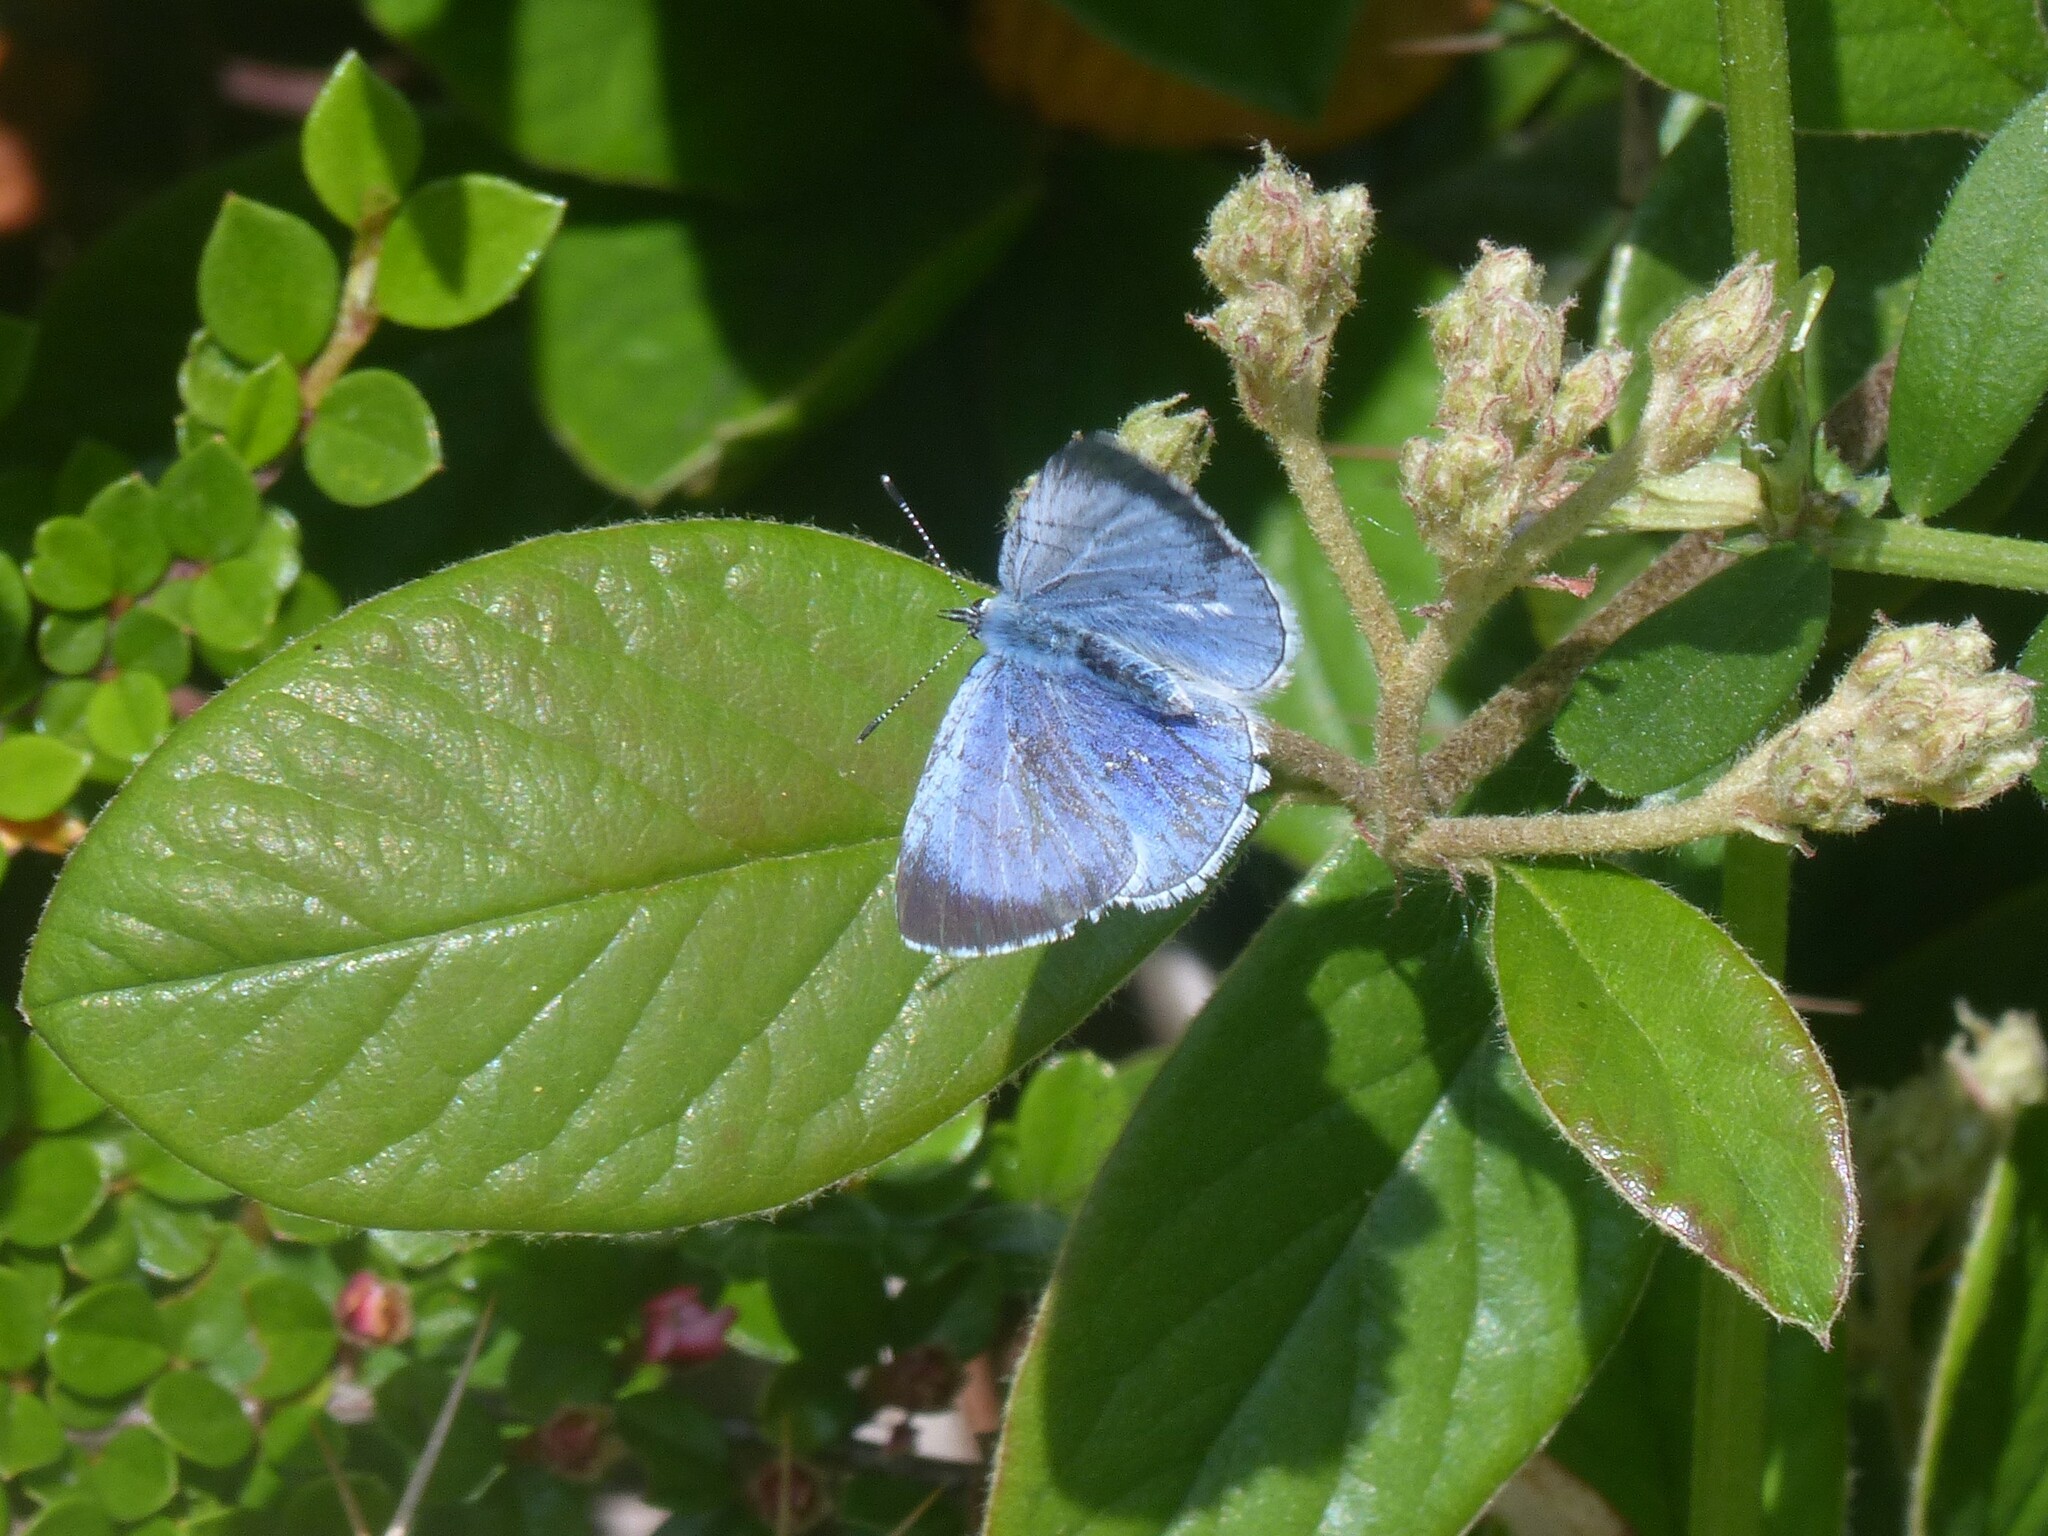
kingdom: Animalia
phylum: Arthropoda
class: Insecta
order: Lepidoptera
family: Lycaenidae
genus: Celastrina
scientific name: Celastrina argiolus
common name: Holly blue
